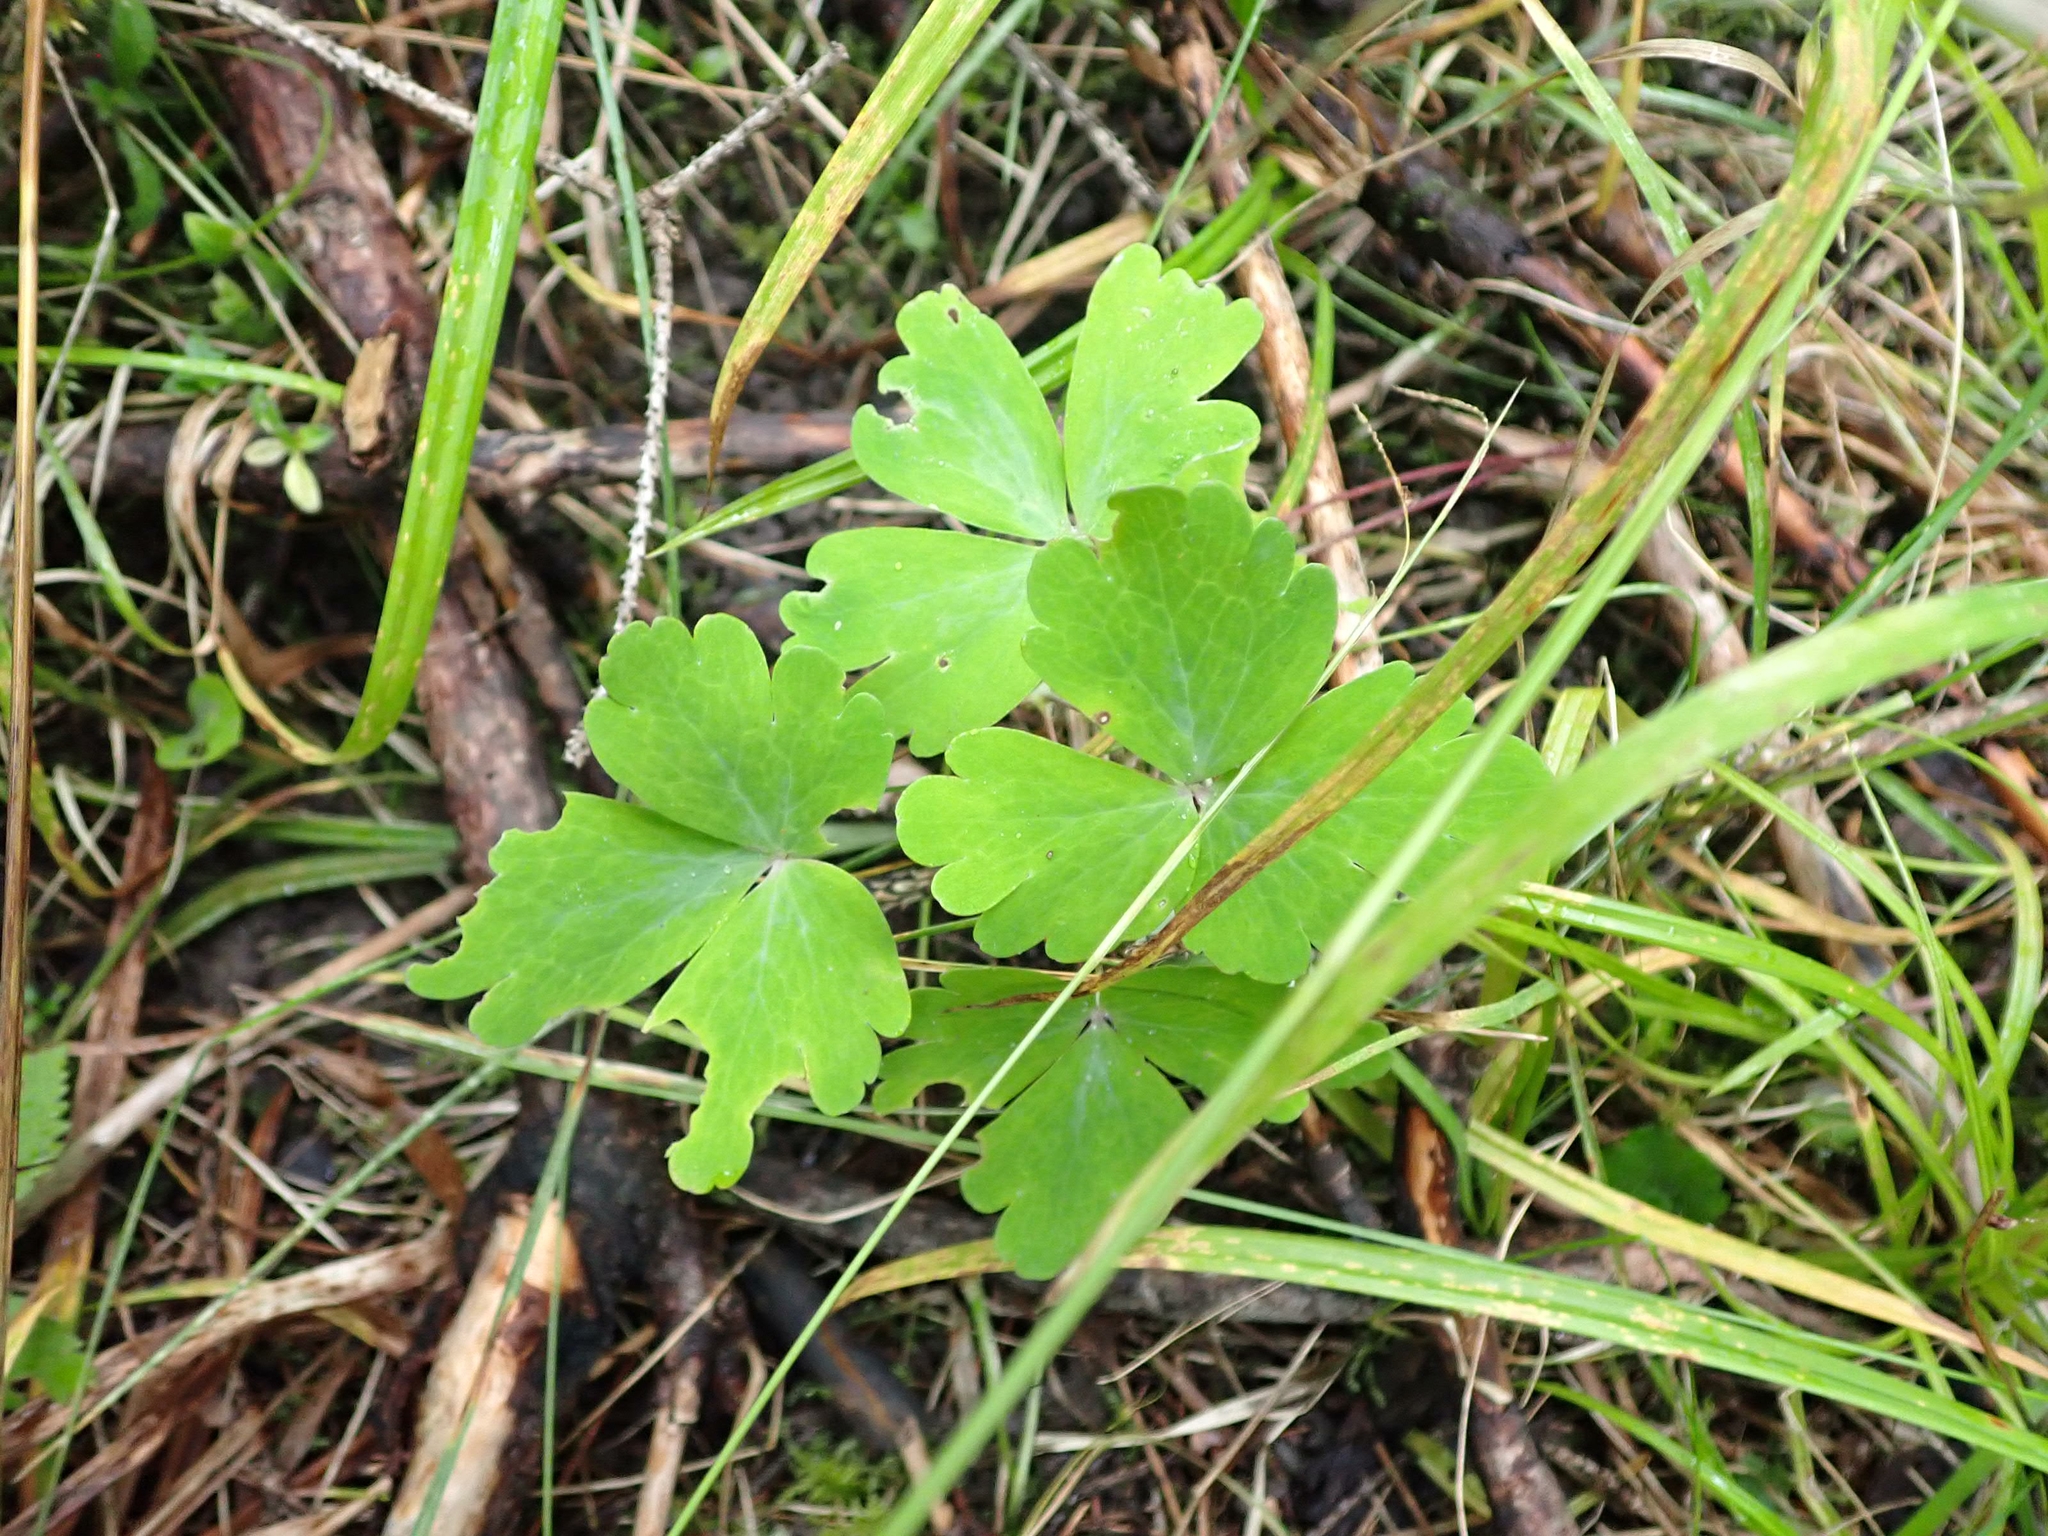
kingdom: Plantae
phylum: Tracheophyta
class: Magnoliopsida
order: Ranunculales
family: Ranunculaceae
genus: Aquilegia
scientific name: Aquilegia canadensis
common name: American columbine
